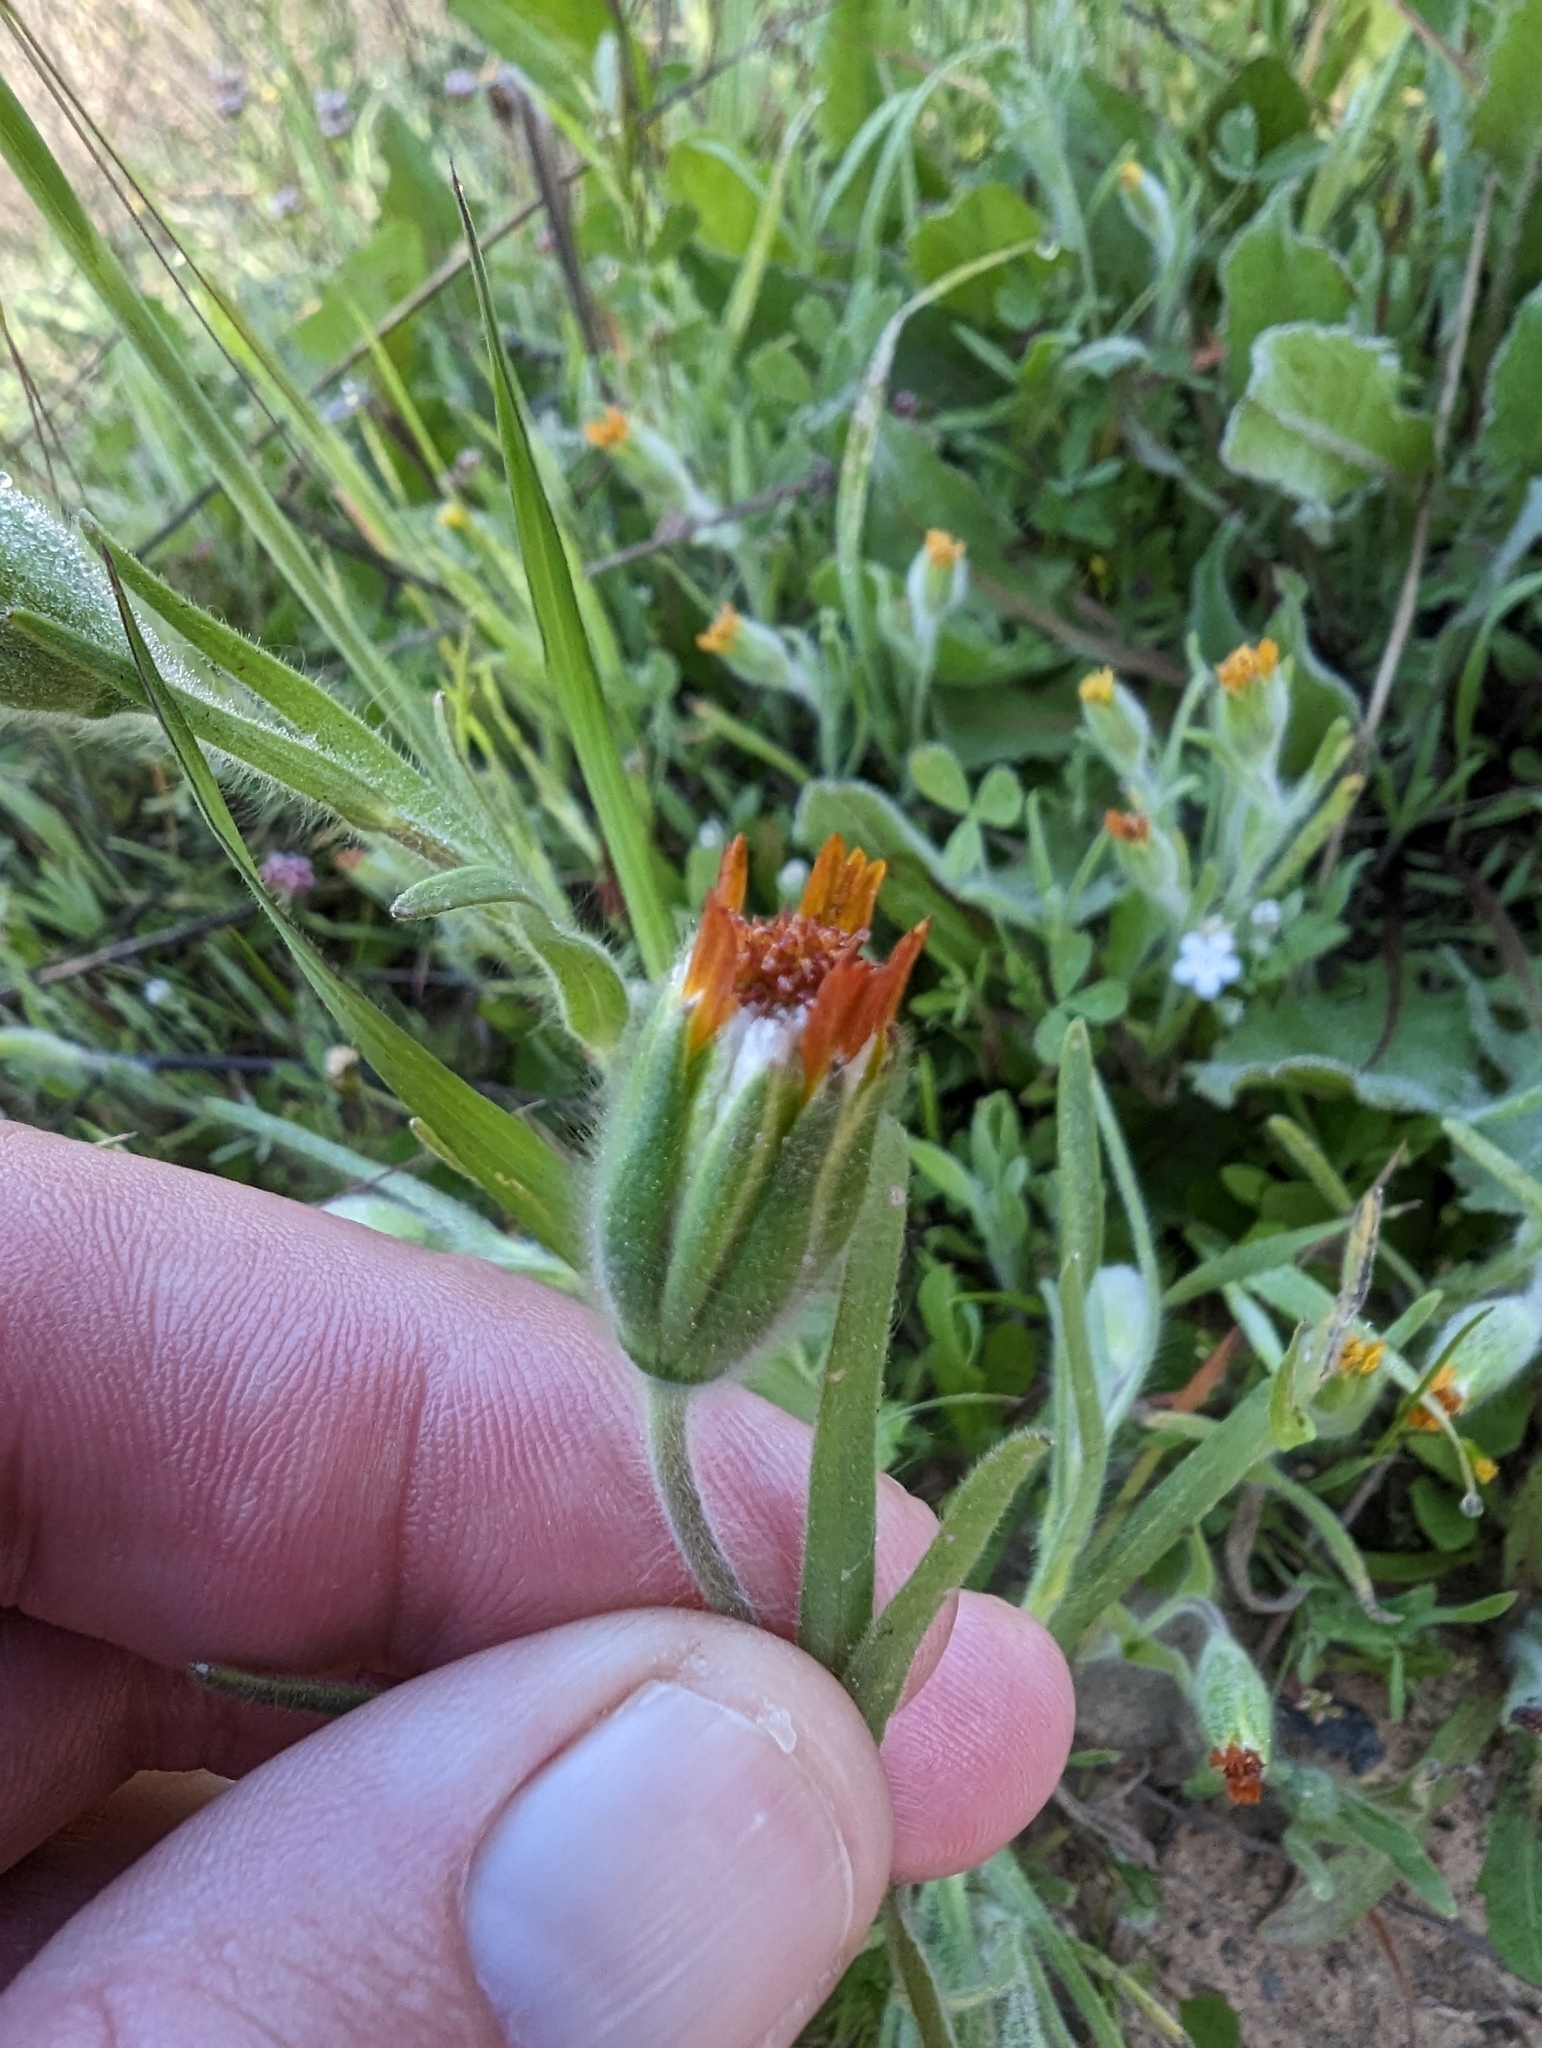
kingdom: Plantae
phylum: Tracheophyta
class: Magnoliopsida
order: Asterales
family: Asteraceae
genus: Achyrachaena
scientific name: Achyrachaena mollis
